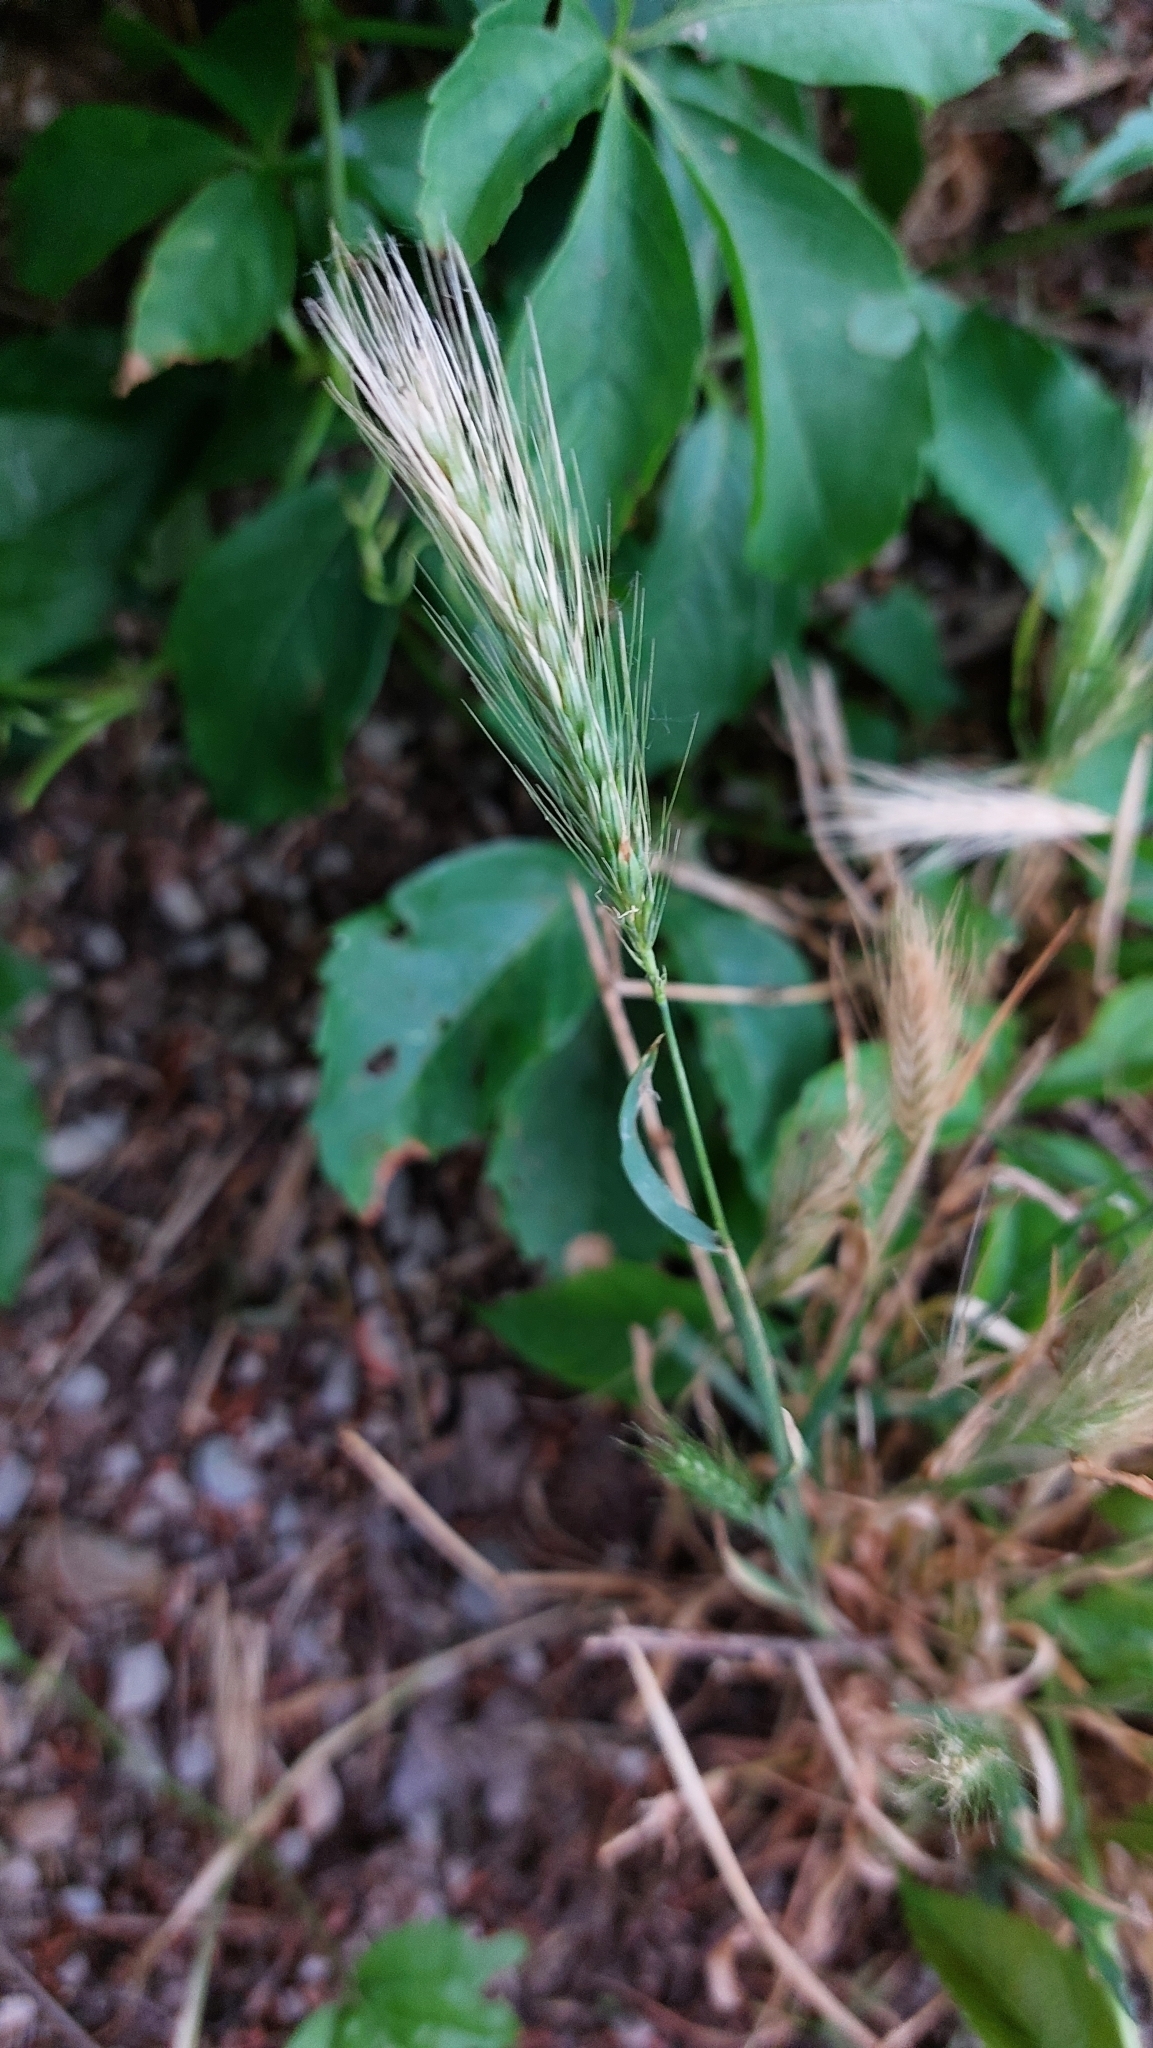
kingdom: Plantae
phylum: Tracheophyta
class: Liliopsida
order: Poales
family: Poaceae
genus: Hordeum
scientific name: Hordeum murinum
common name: Wall barley
